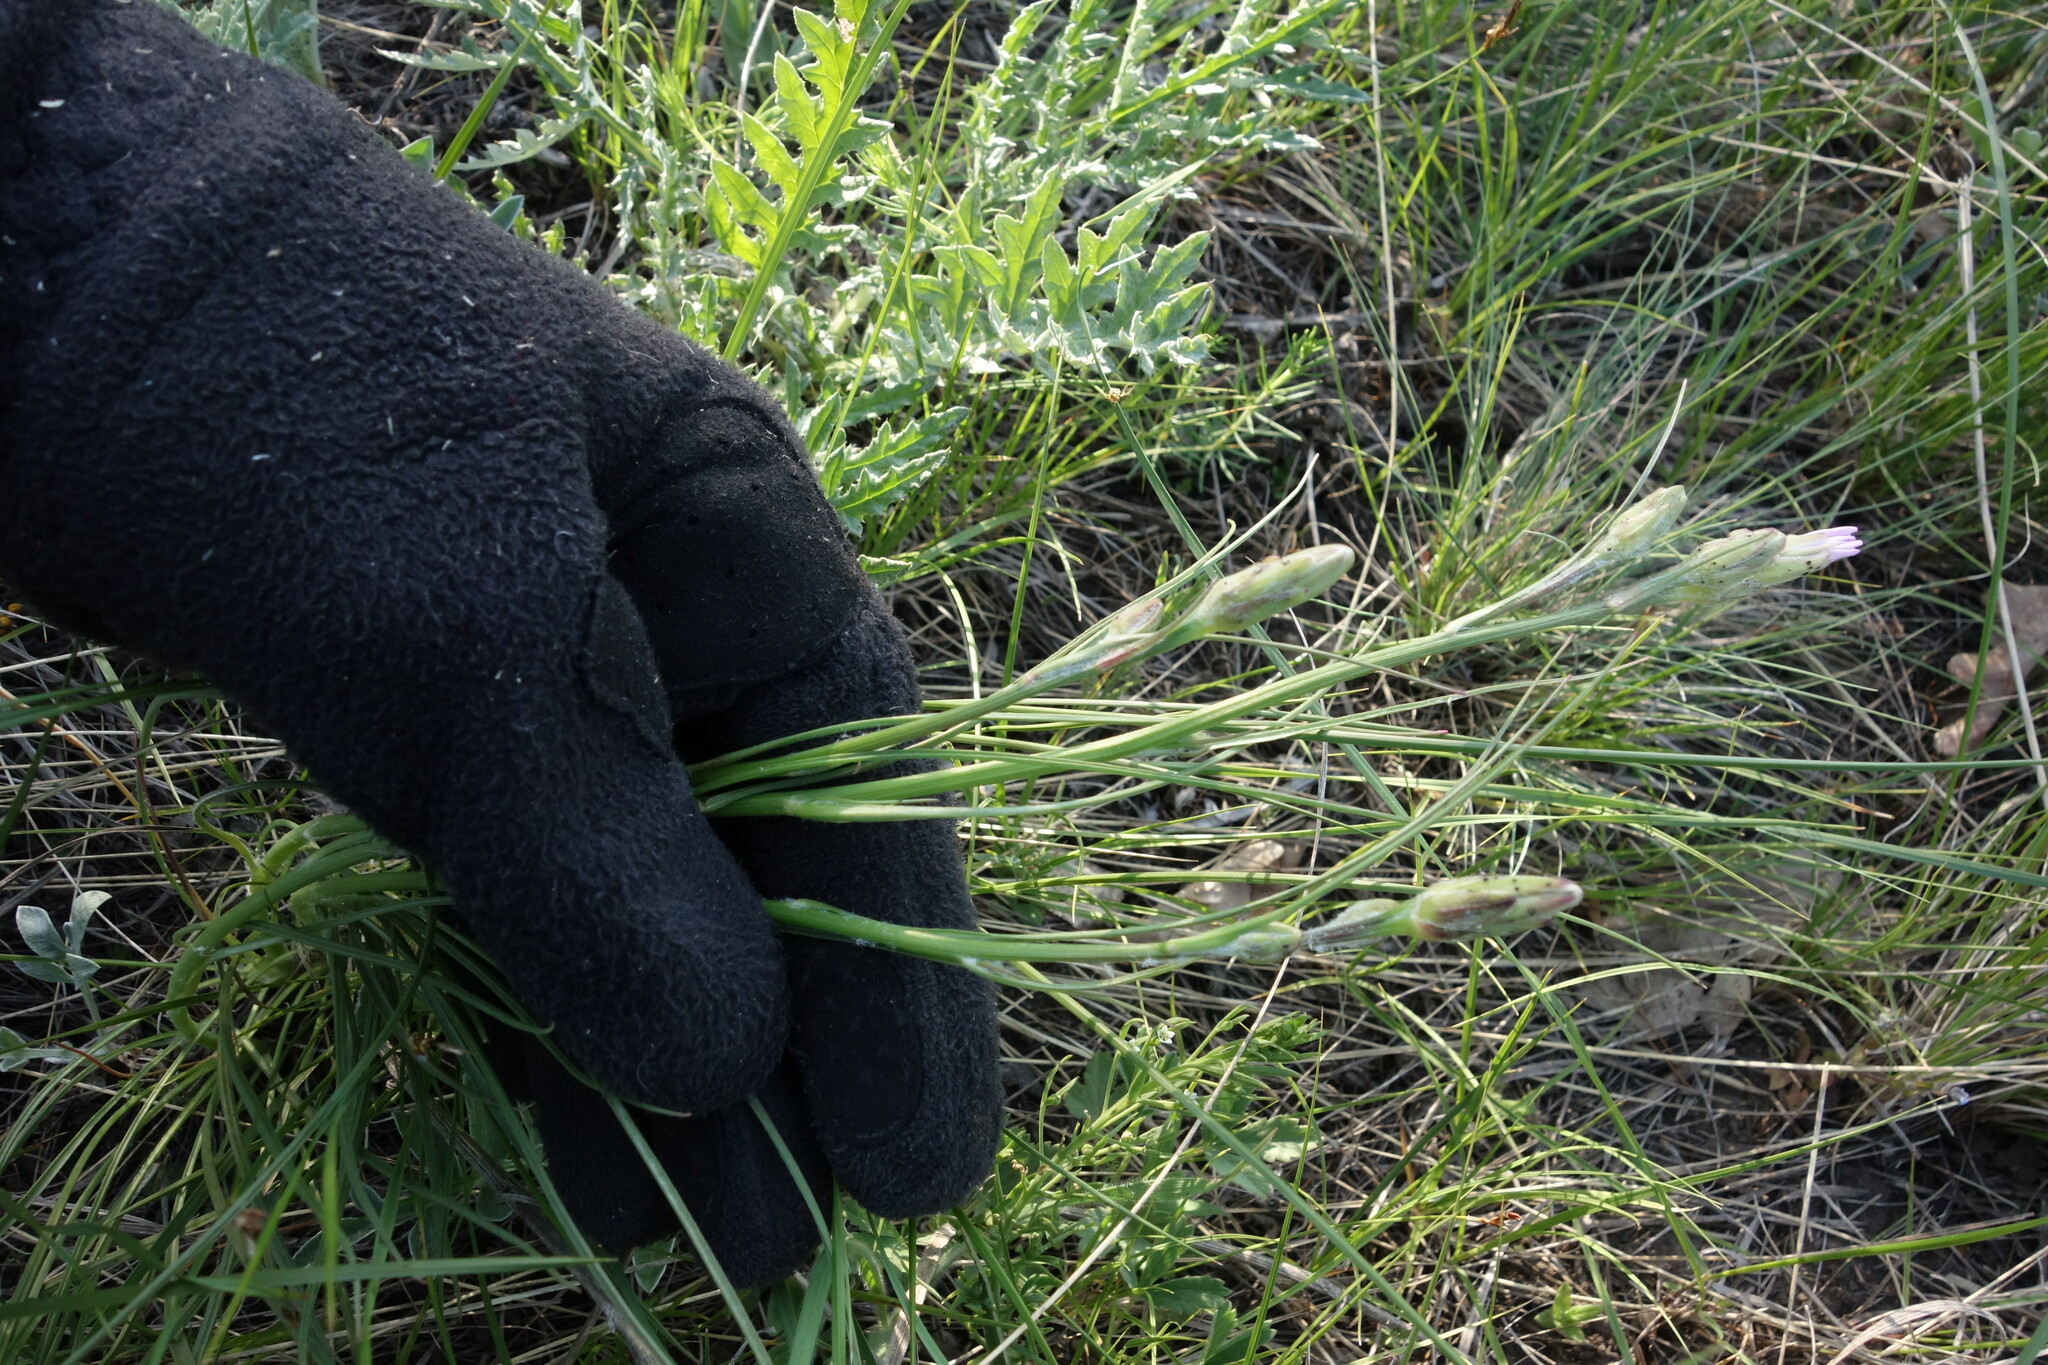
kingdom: Plantae
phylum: Tracheophyta
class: Magnoliopsida
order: Asterales
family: Asteraceae
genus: Scorzonera
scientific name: Scorzonera purpurea
